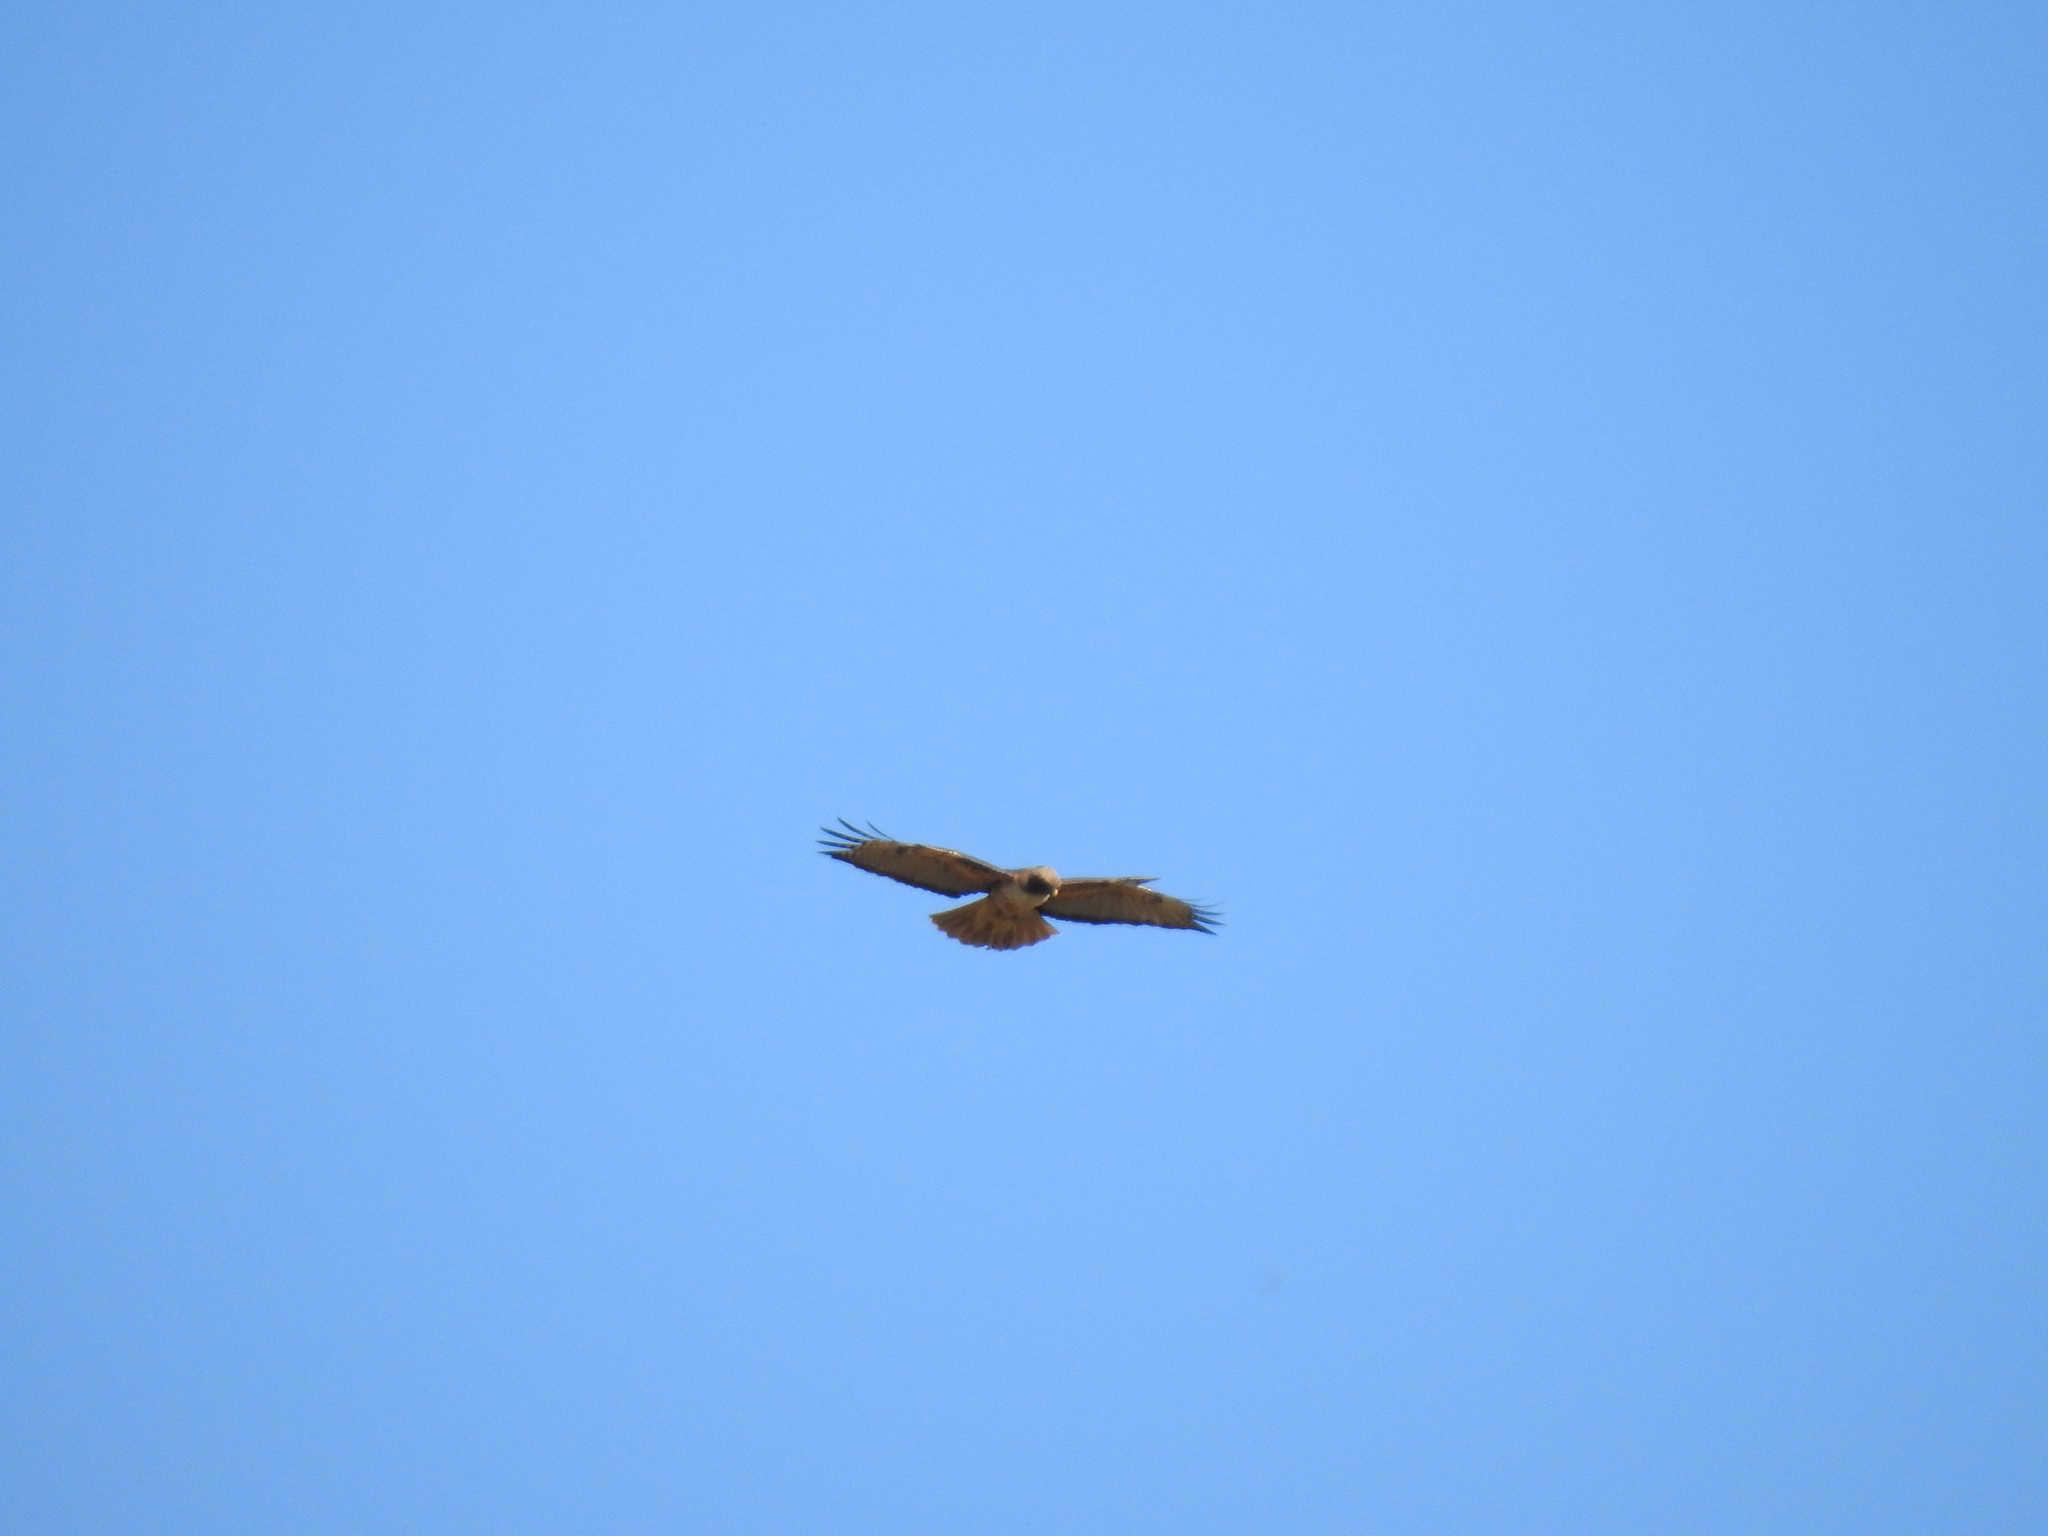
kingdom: Animalia
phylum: Chordata
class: Aves
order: Accipitriformes
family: Accipitridae
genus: Buteo
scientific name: Buteo jamaicensis
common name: Red-tailed hawk
